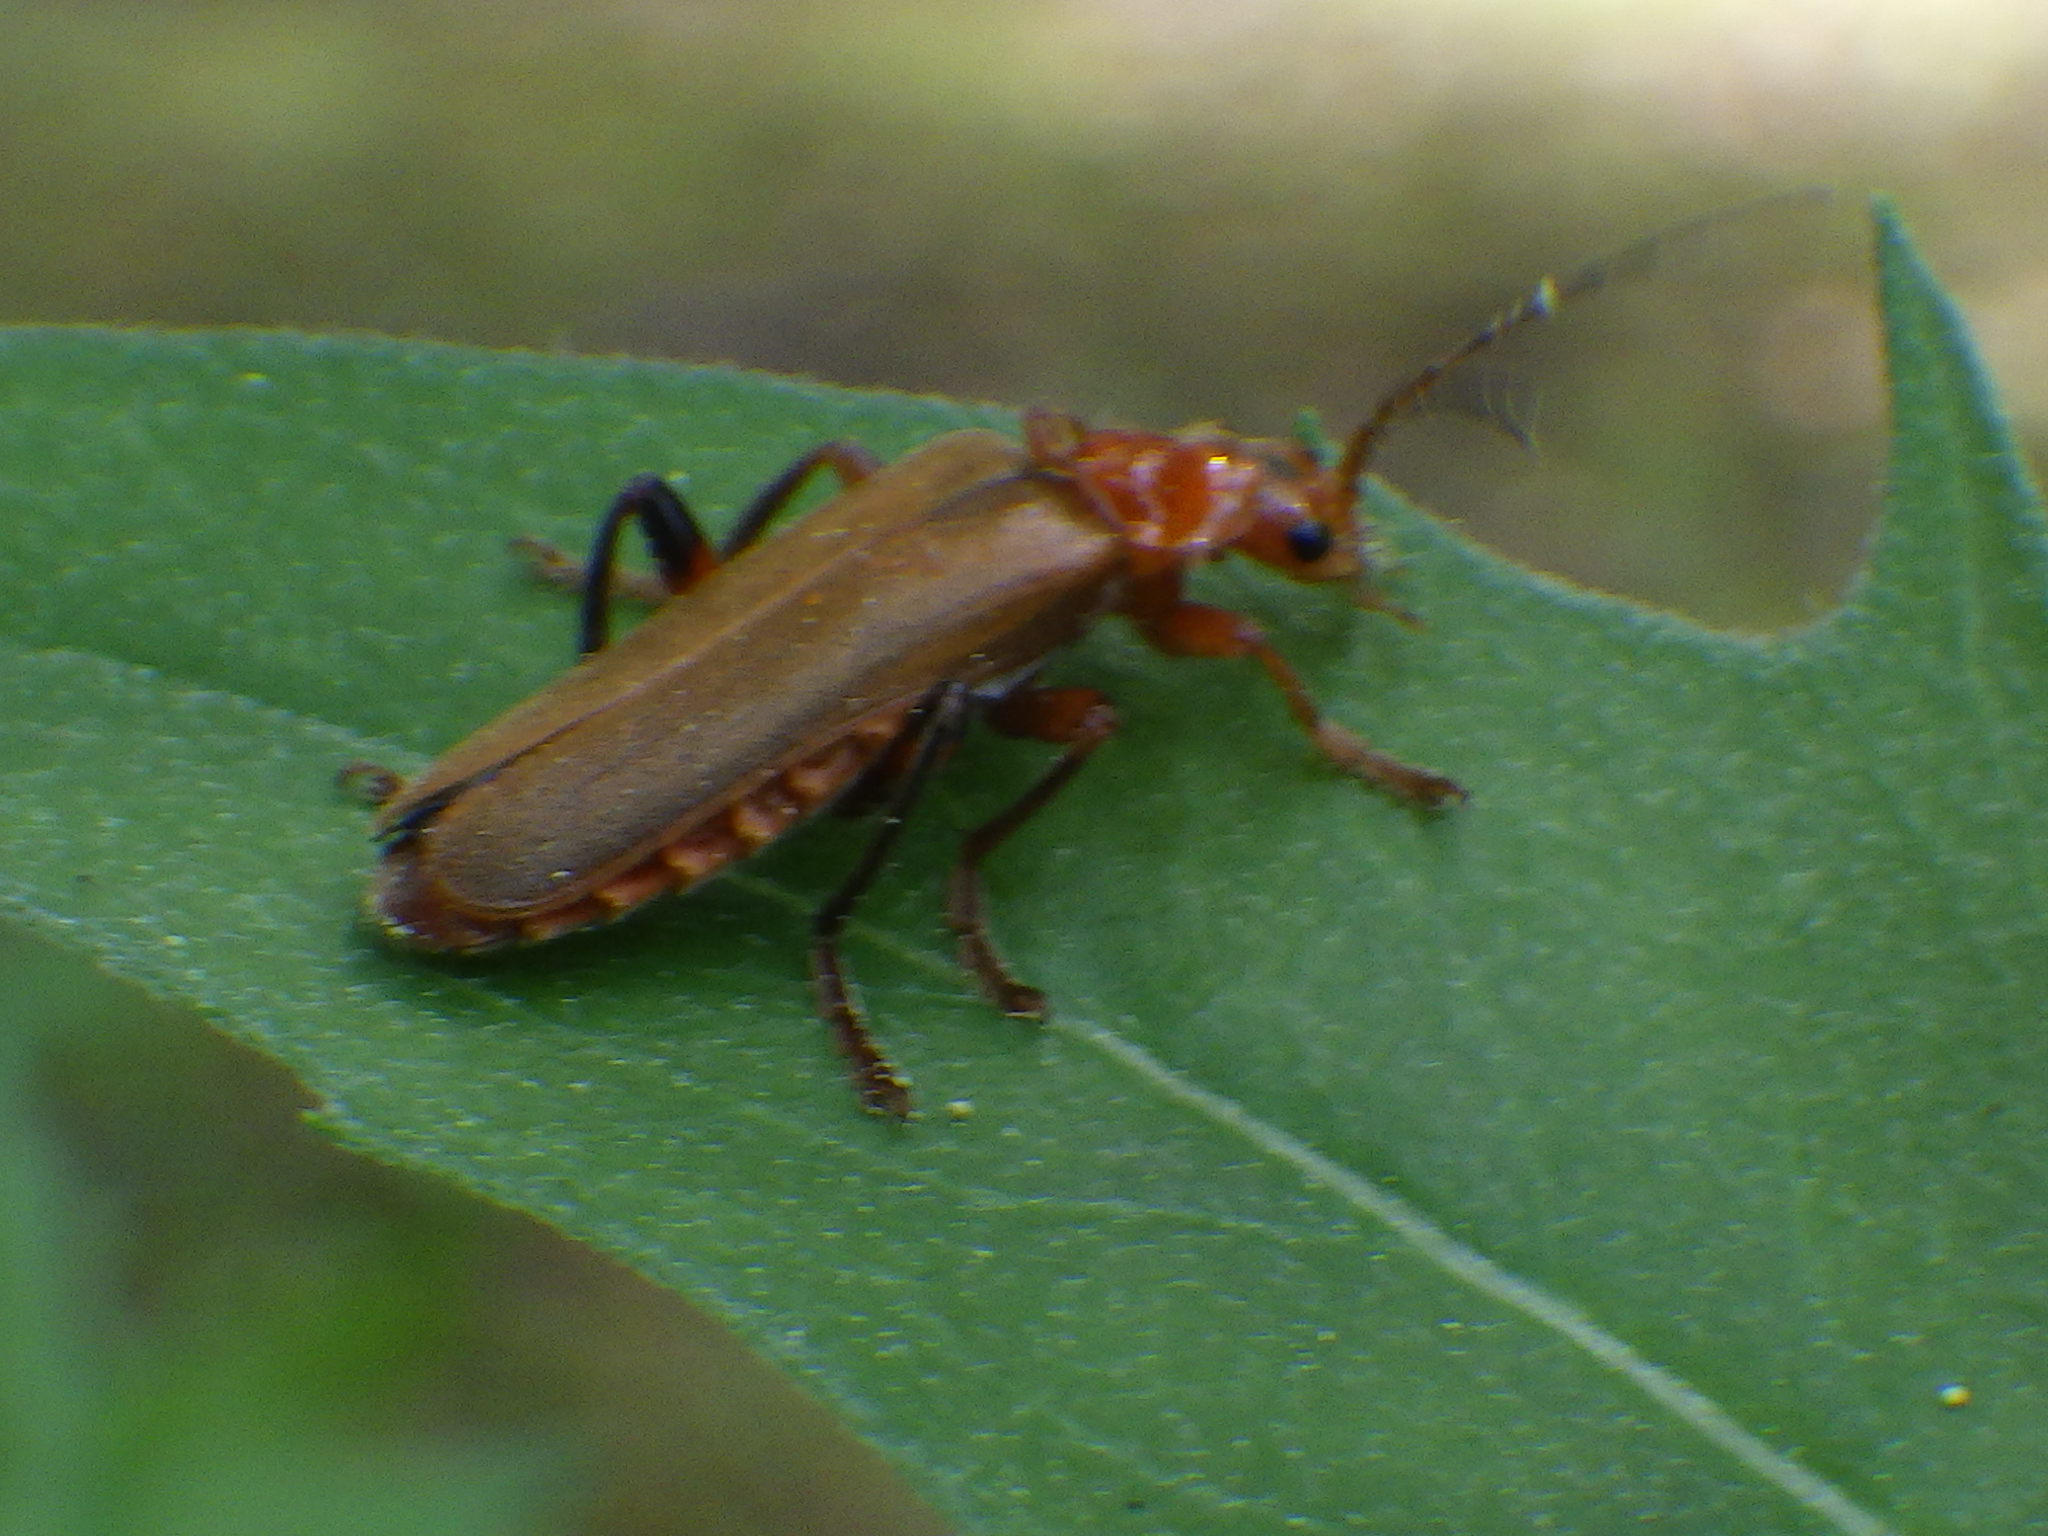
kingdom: Animalia
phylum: Arthropoda
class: Insecta
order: Coleoptera
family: Cantharidae
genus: Cantharis
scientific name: Cantharis livida
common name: Livid soldier beetle
